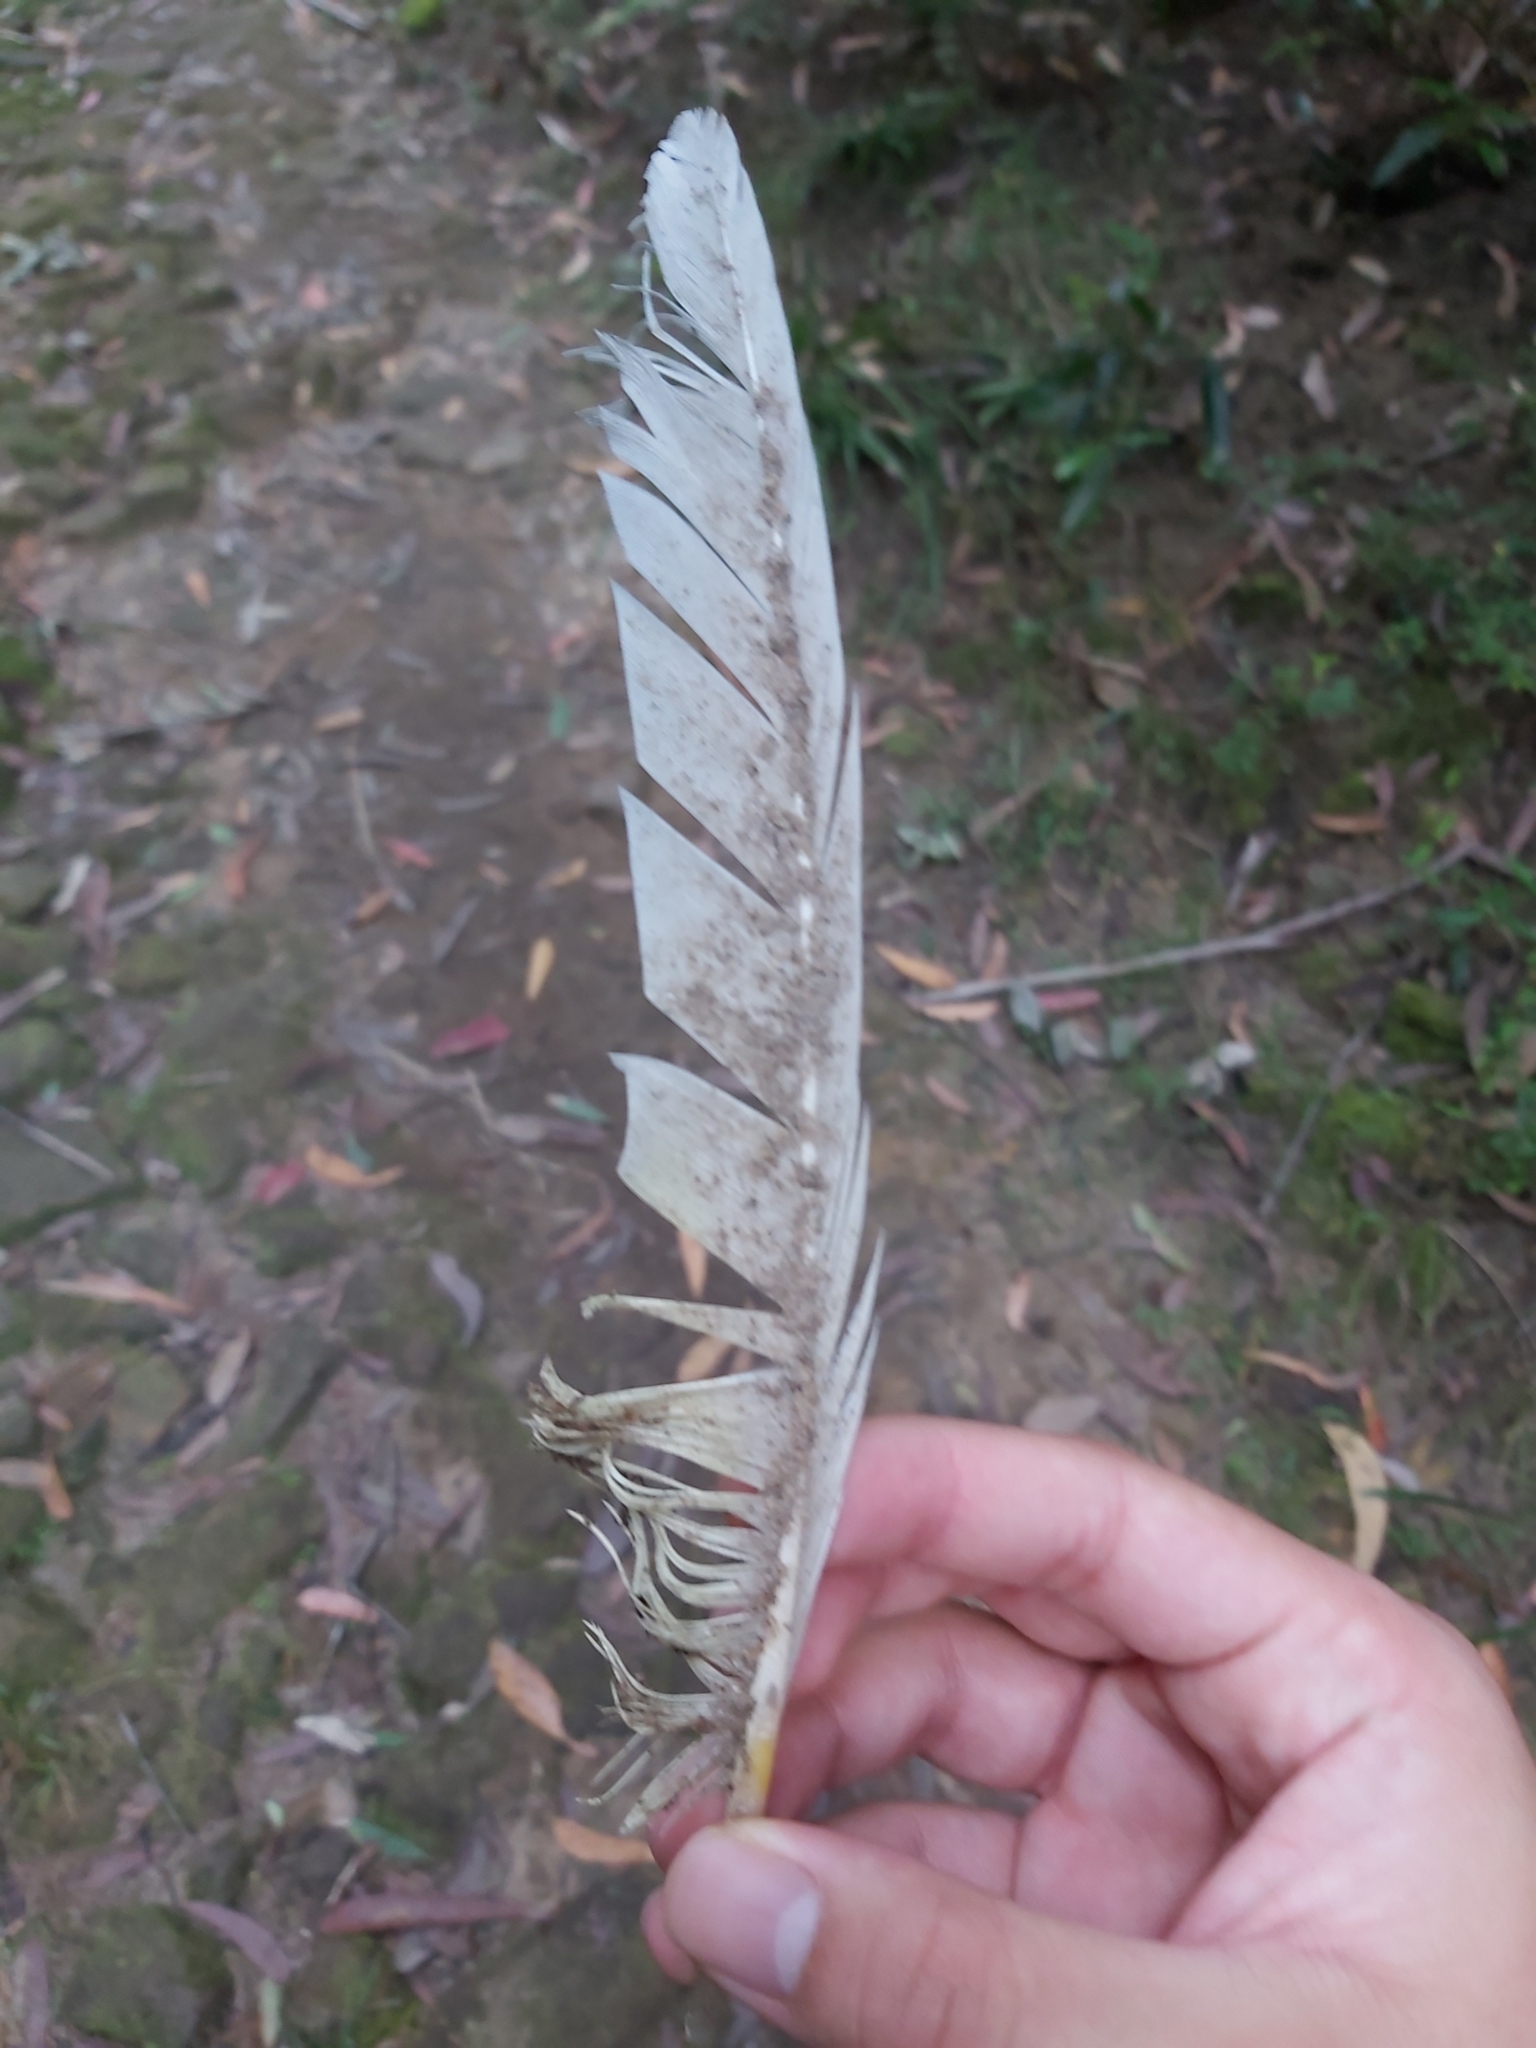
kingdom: Animalia
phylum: Chordata
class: Aves
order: Psittaciformes
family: Psittacidae
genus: Cacatua
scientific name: Cacatua galerita
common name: Sulphur-crested cockatoo
